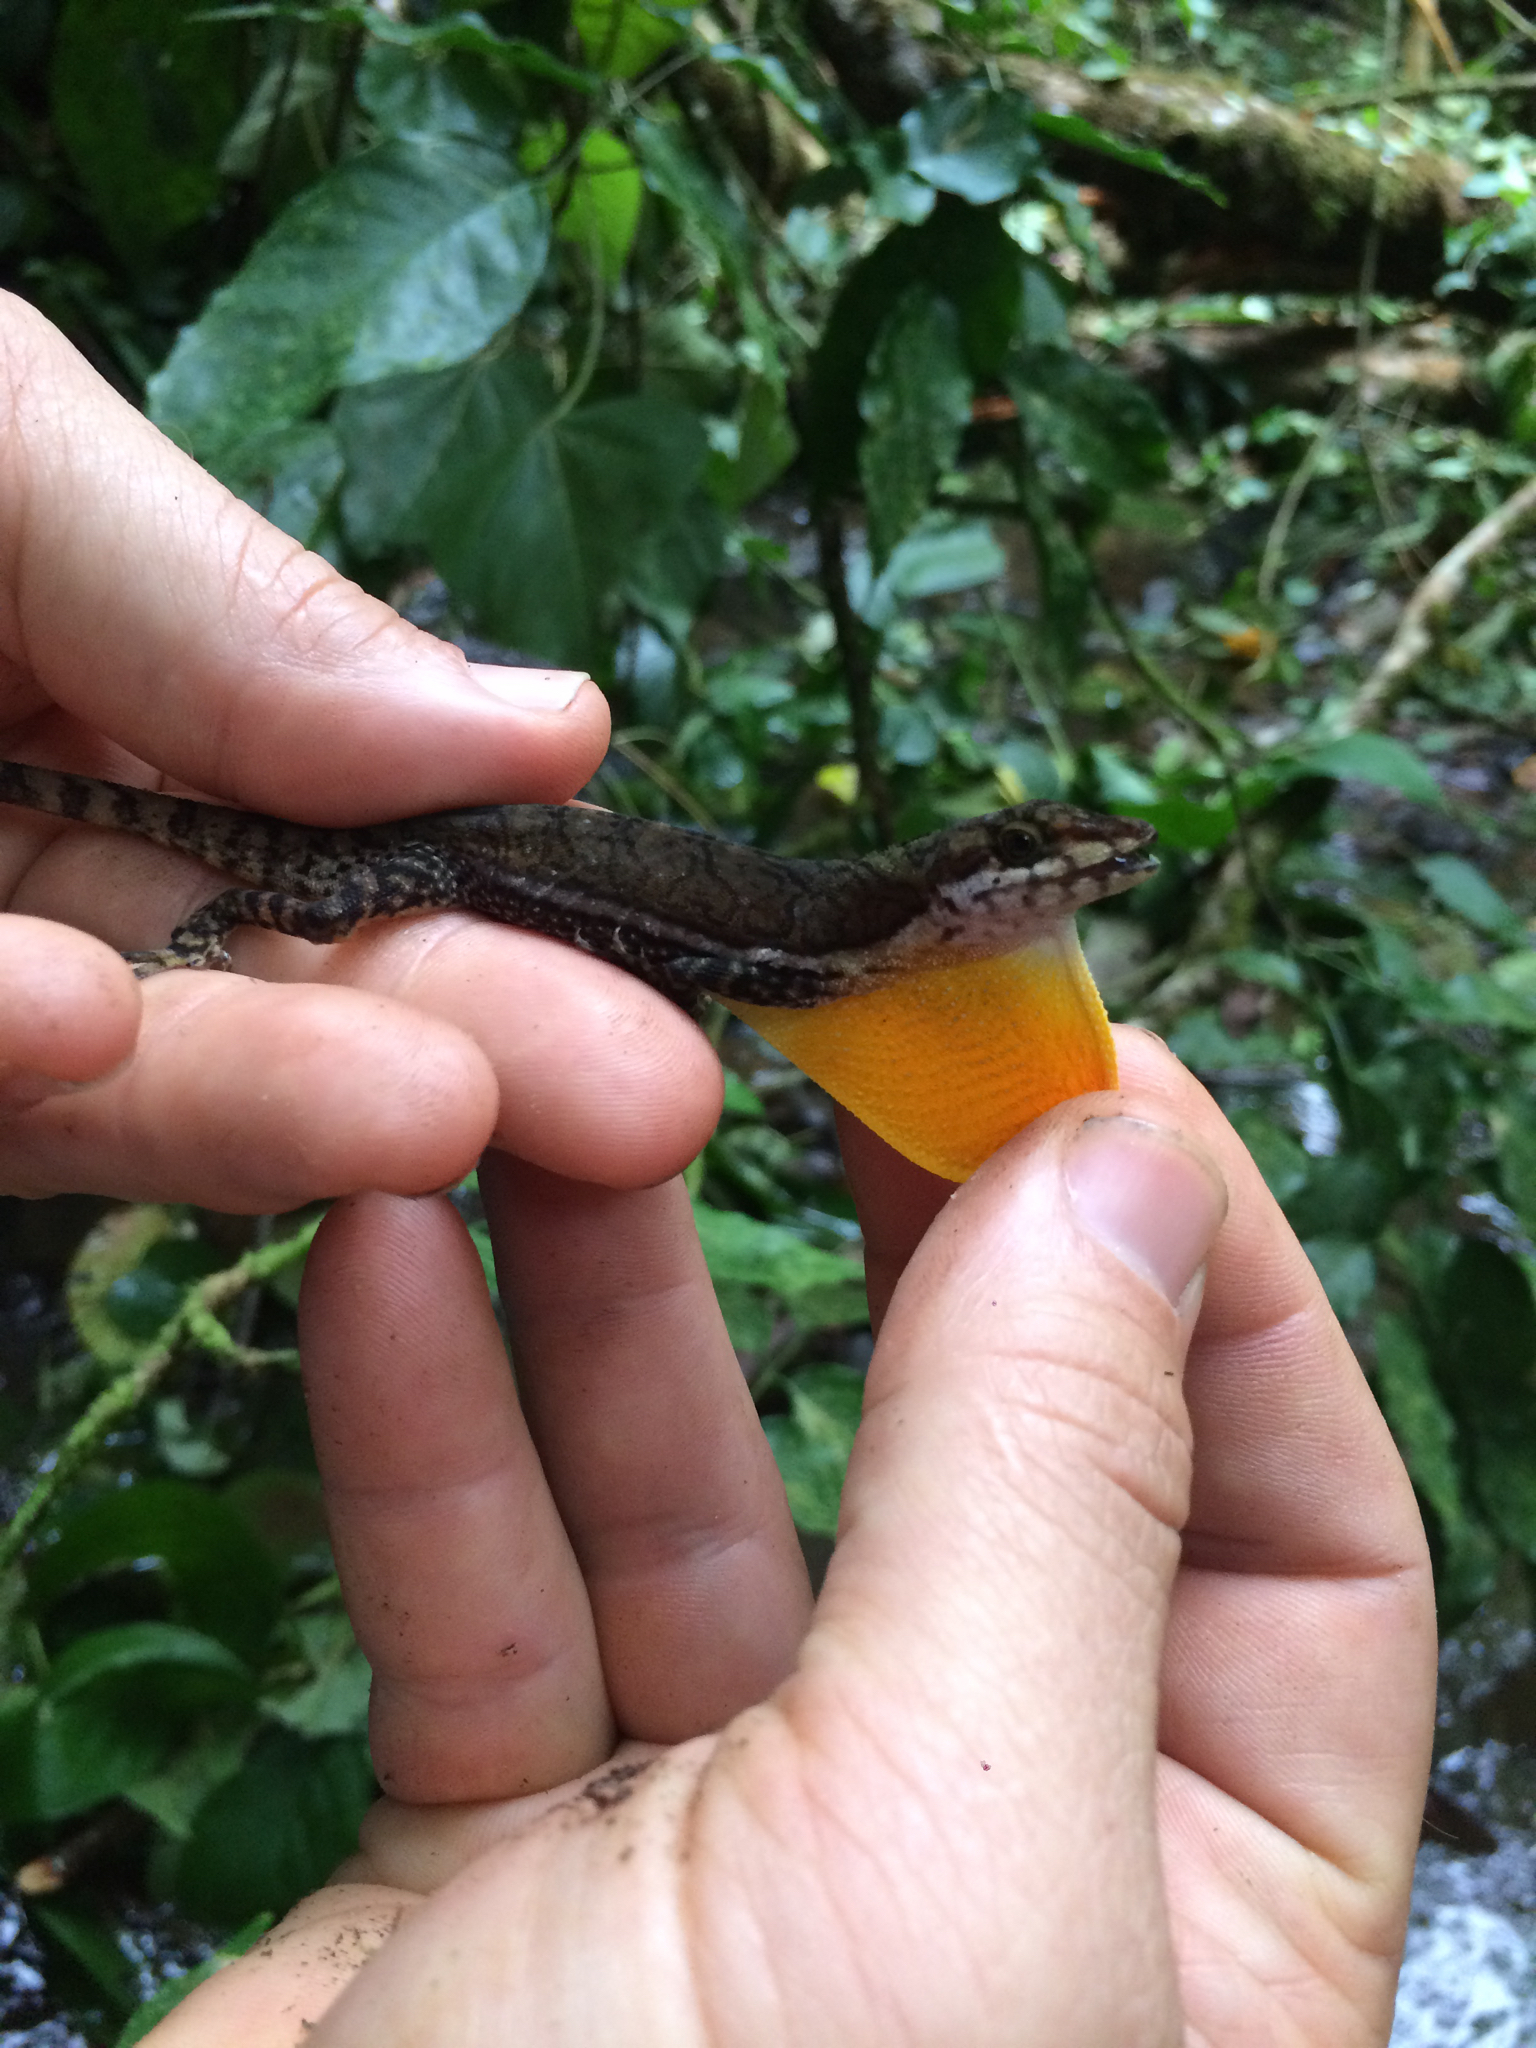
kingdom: Animalia
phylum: Chordata
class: Squamata
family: Dactyloidae
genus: Anolis
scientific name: Anolis oxylophus
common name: Stream anole
